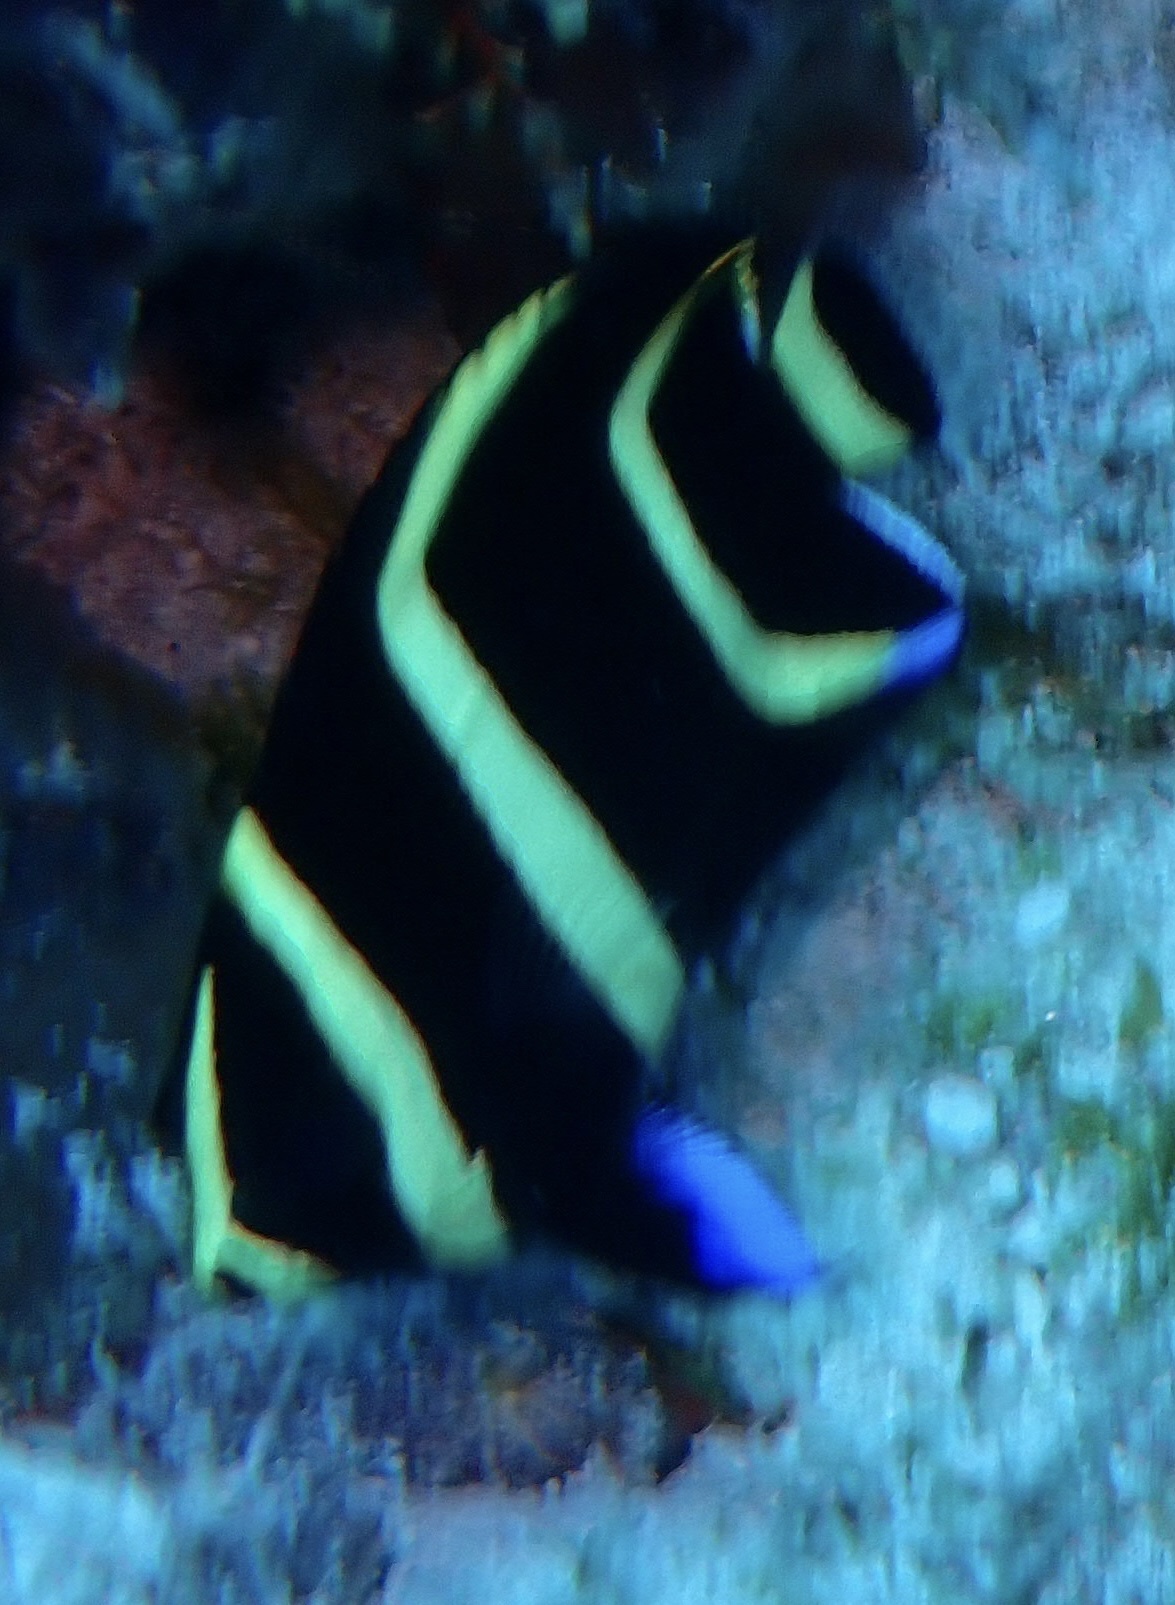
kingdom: Animalia
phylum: Chordata
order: Perciformes
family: Pomacanthidae
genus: Pomacanthus
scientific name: Pomacanthus arcuatus
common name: Gray angelfish
